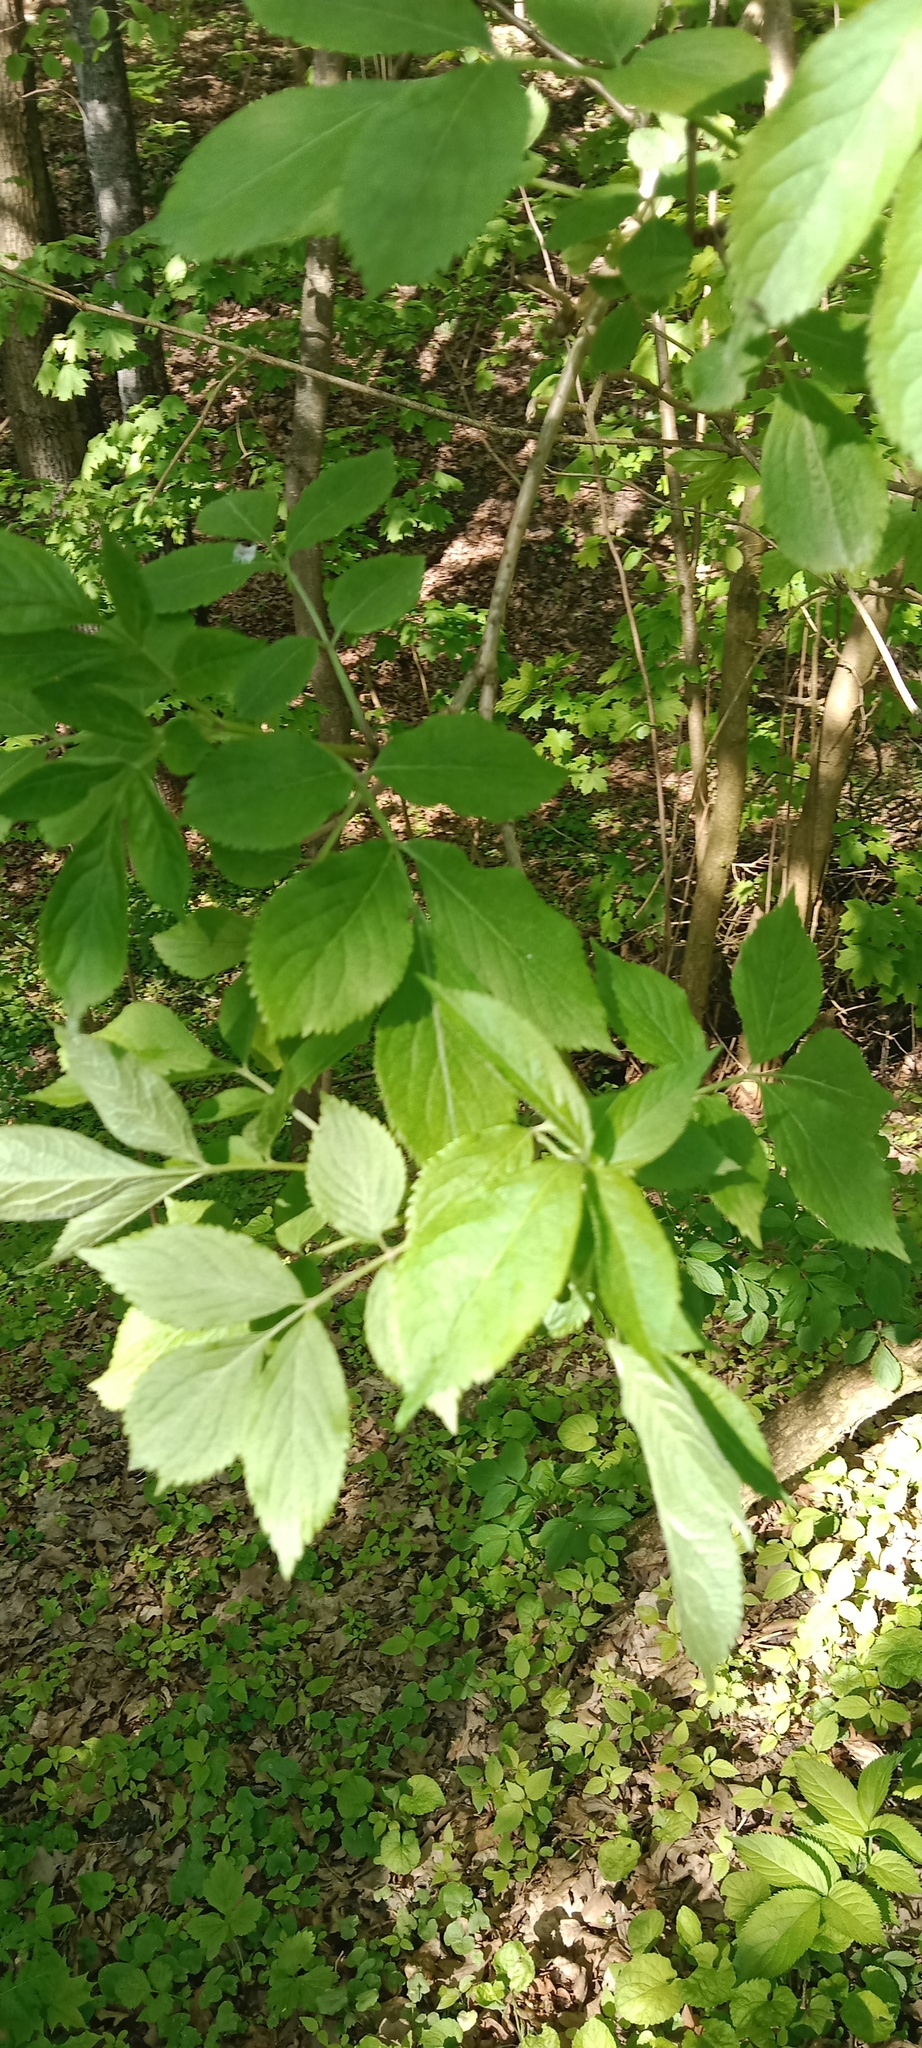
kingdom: Plantae
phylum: Tracheophyta
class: Magnoliopsida
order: Dipsacales
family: Viburnaceae
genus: Sambucus
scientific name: Sambucus nigra
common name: Elder
